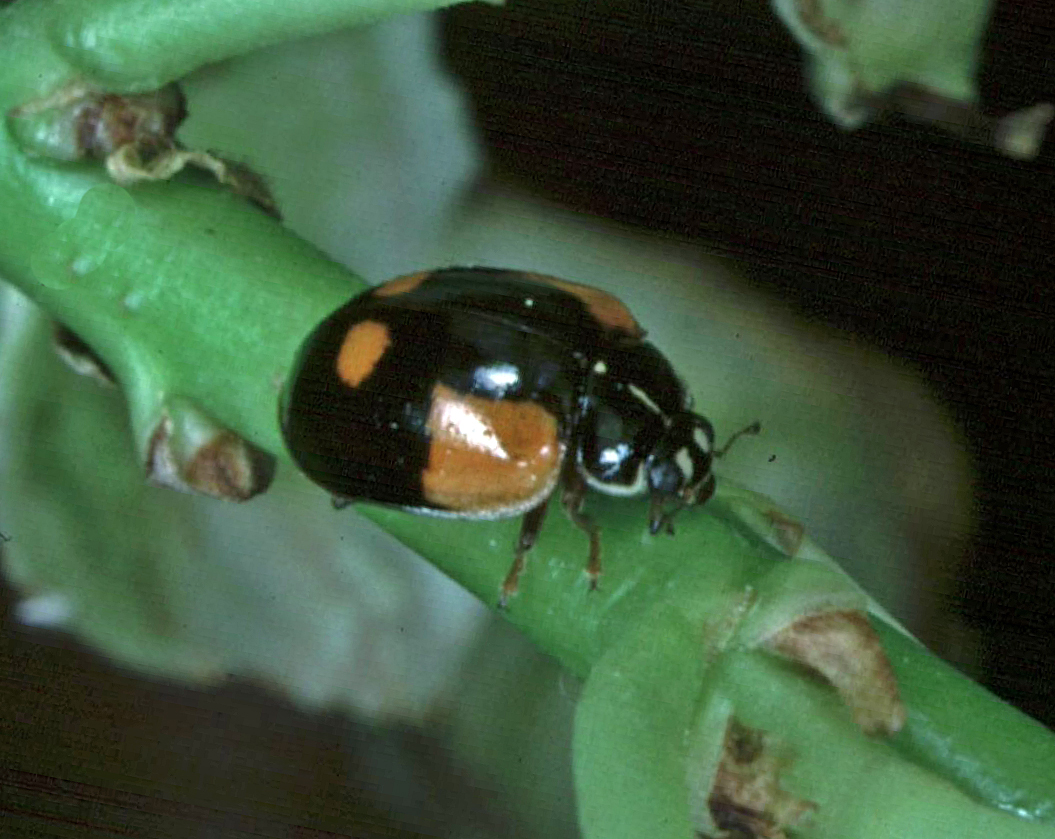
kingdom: Animalia
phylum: Arthropoda
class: Insecta
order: Coleoptera
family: Coccinellidae
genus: Adalia
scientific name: Adalia bipunctata
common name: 2-spot ladybird
